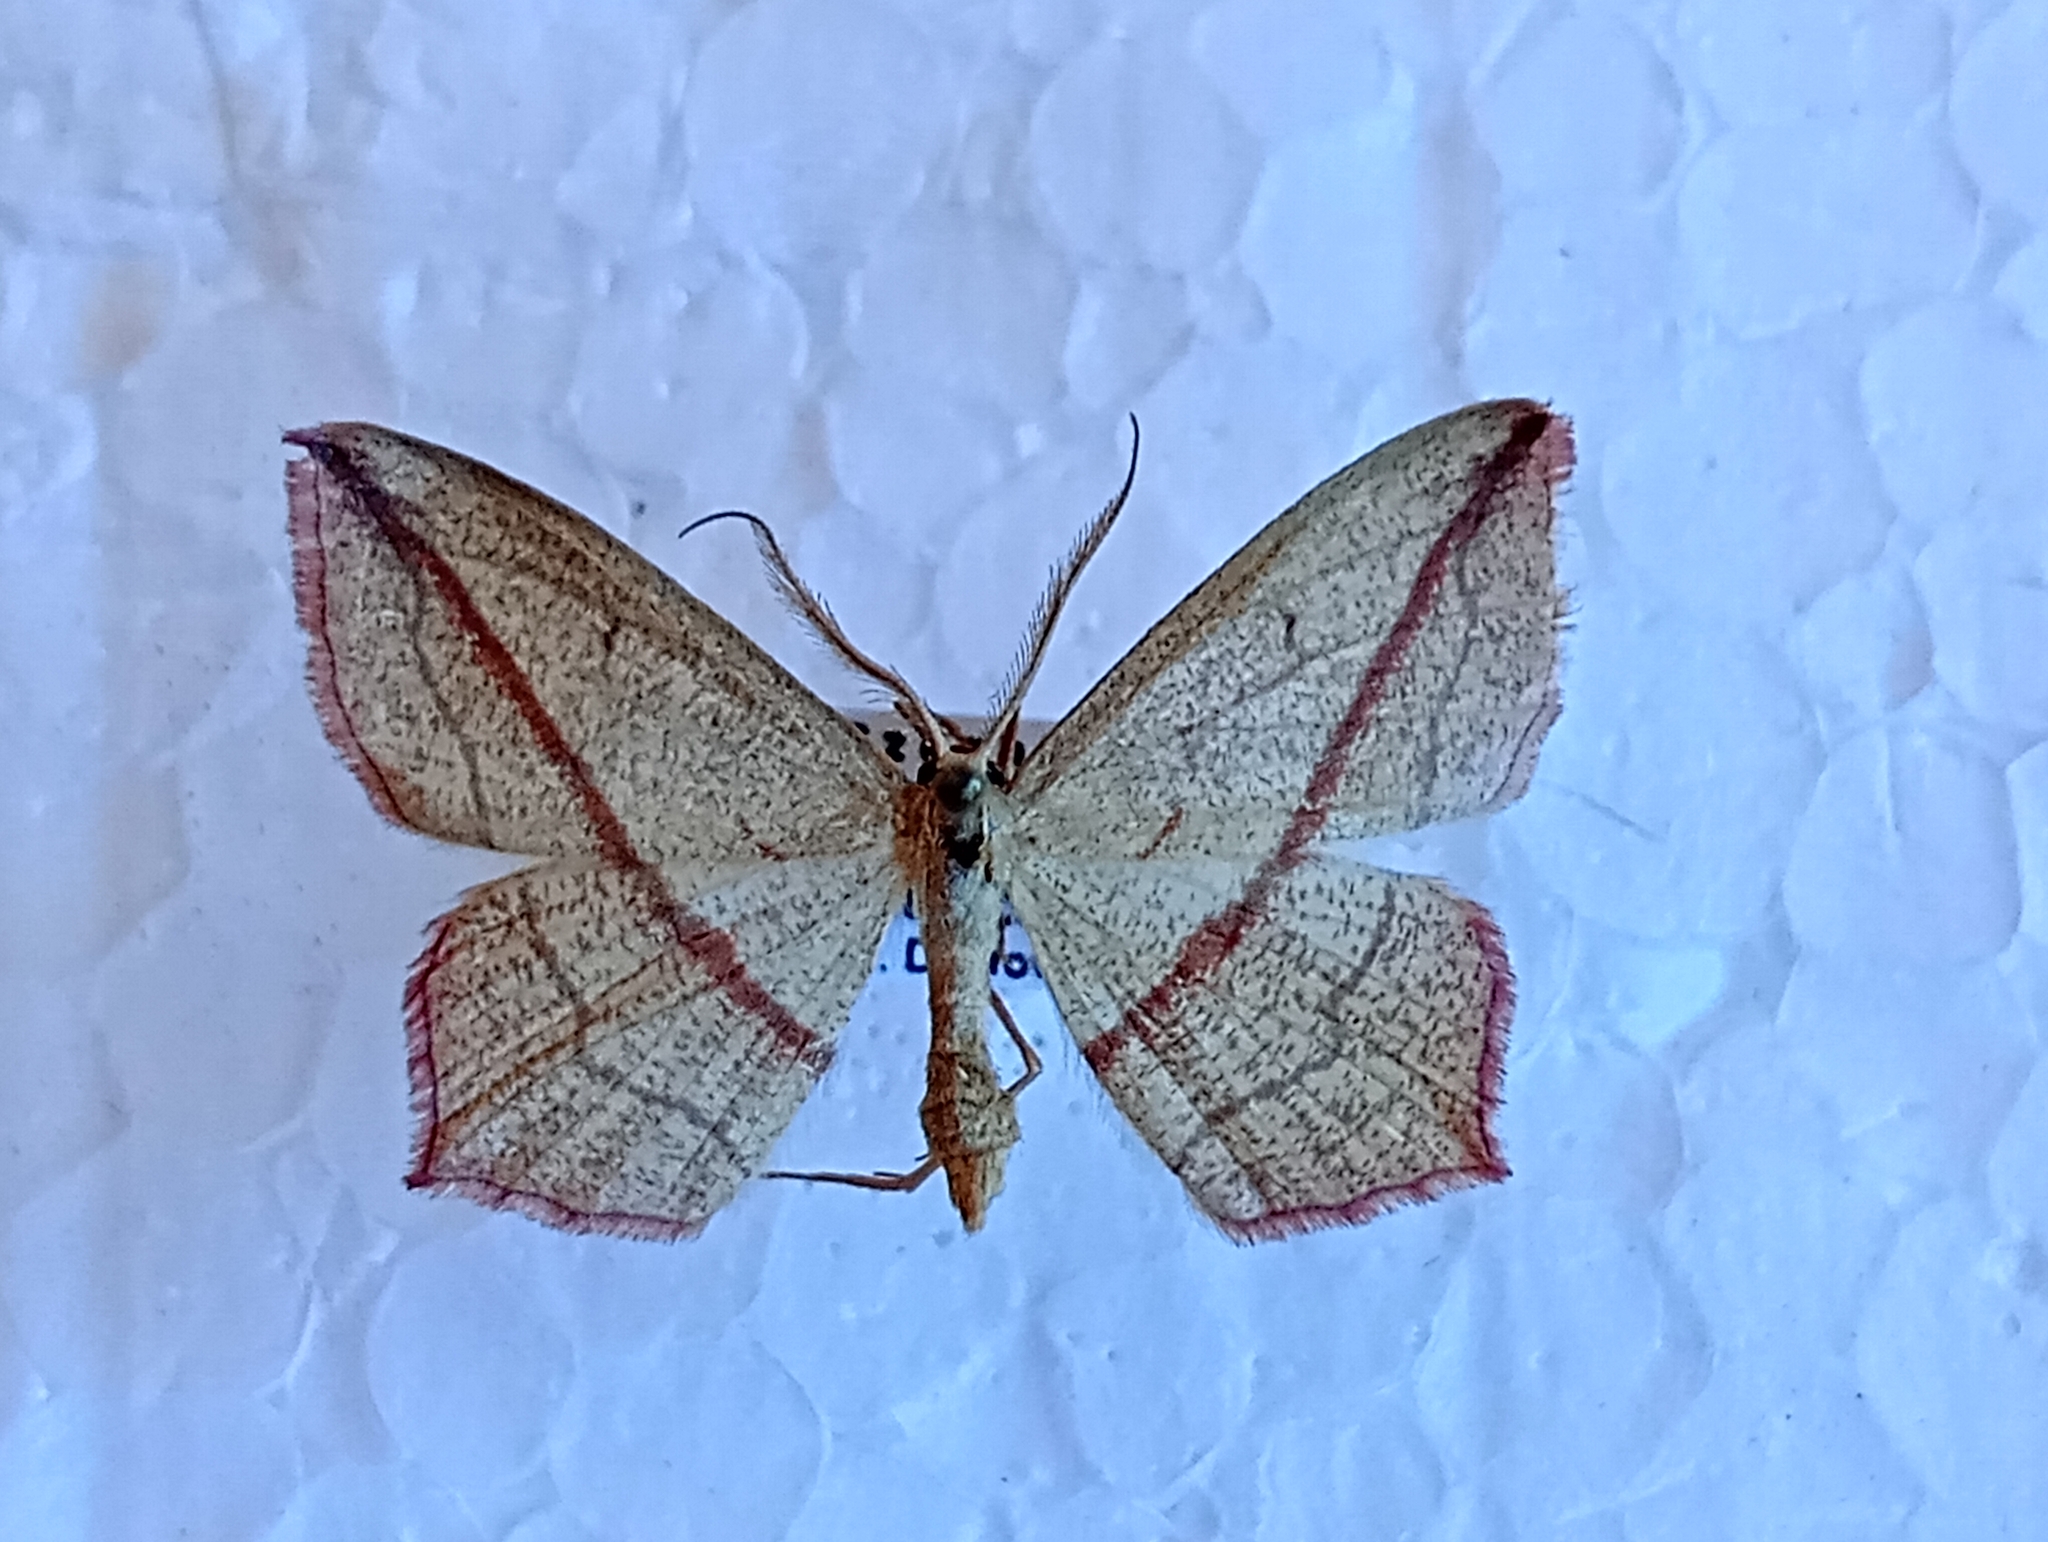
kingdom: Animalia
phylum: Arthropoda
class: Insecta
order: Lepidoptera
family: Geometridae
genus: Timandra
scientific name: Timandra comae
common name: Blood-vein
